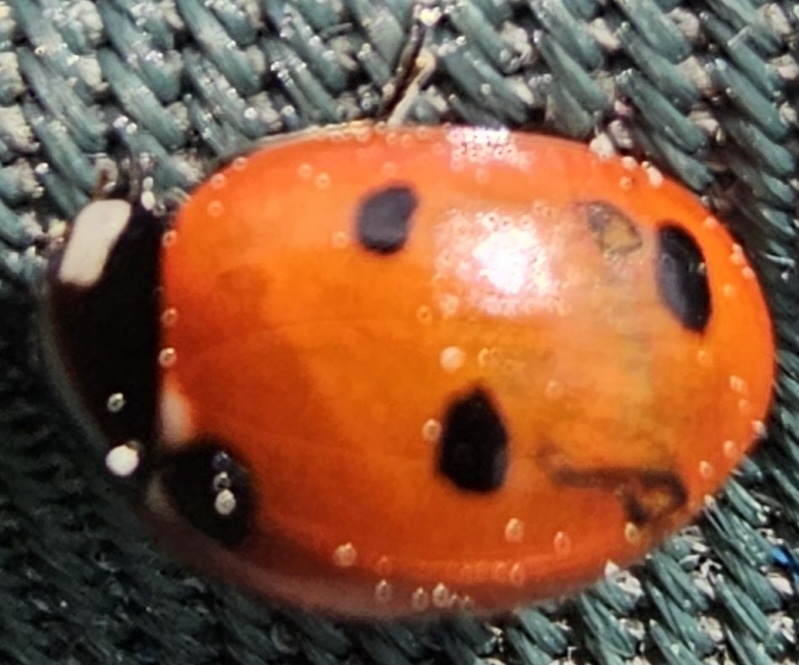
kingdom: Animalia
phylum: Arthropoda
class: Insecta
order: Coleoptera
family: Coccinellidae
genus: Coccinella
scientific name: Coccinella septempunctata
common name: Sevenspotted lady beetle
